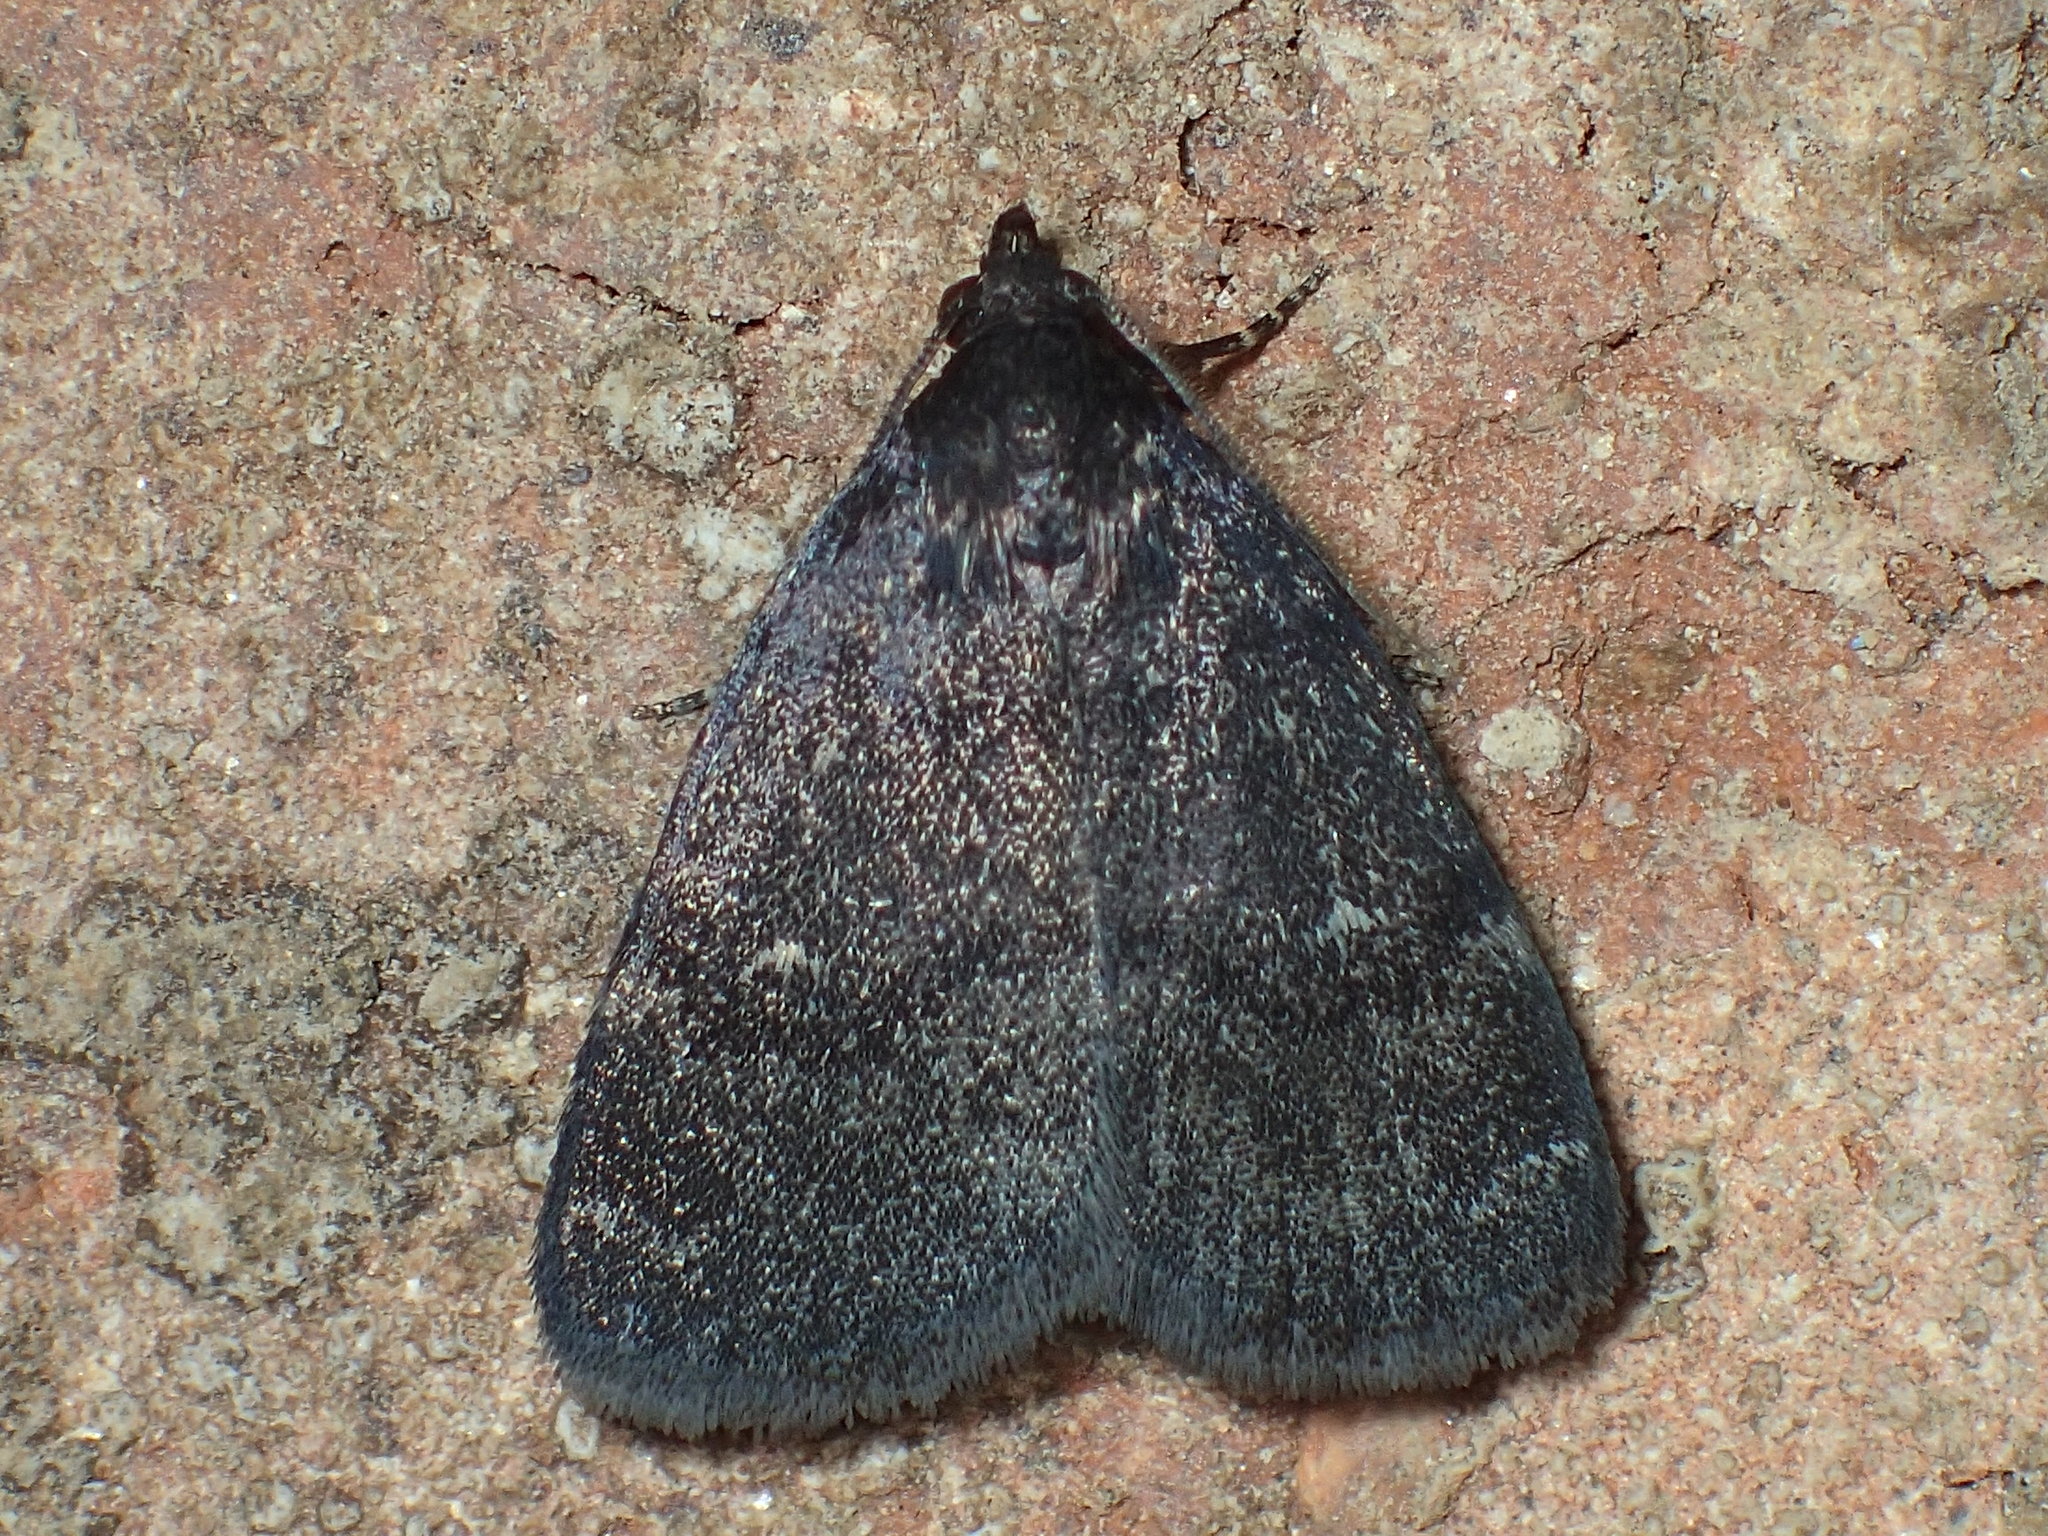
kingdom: Animalia
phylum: Arthropoda
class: Insecta
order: Lepidoptera
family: Erebidae
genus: Idia
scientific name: Idia rotundalis
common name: Rotund idia moth
